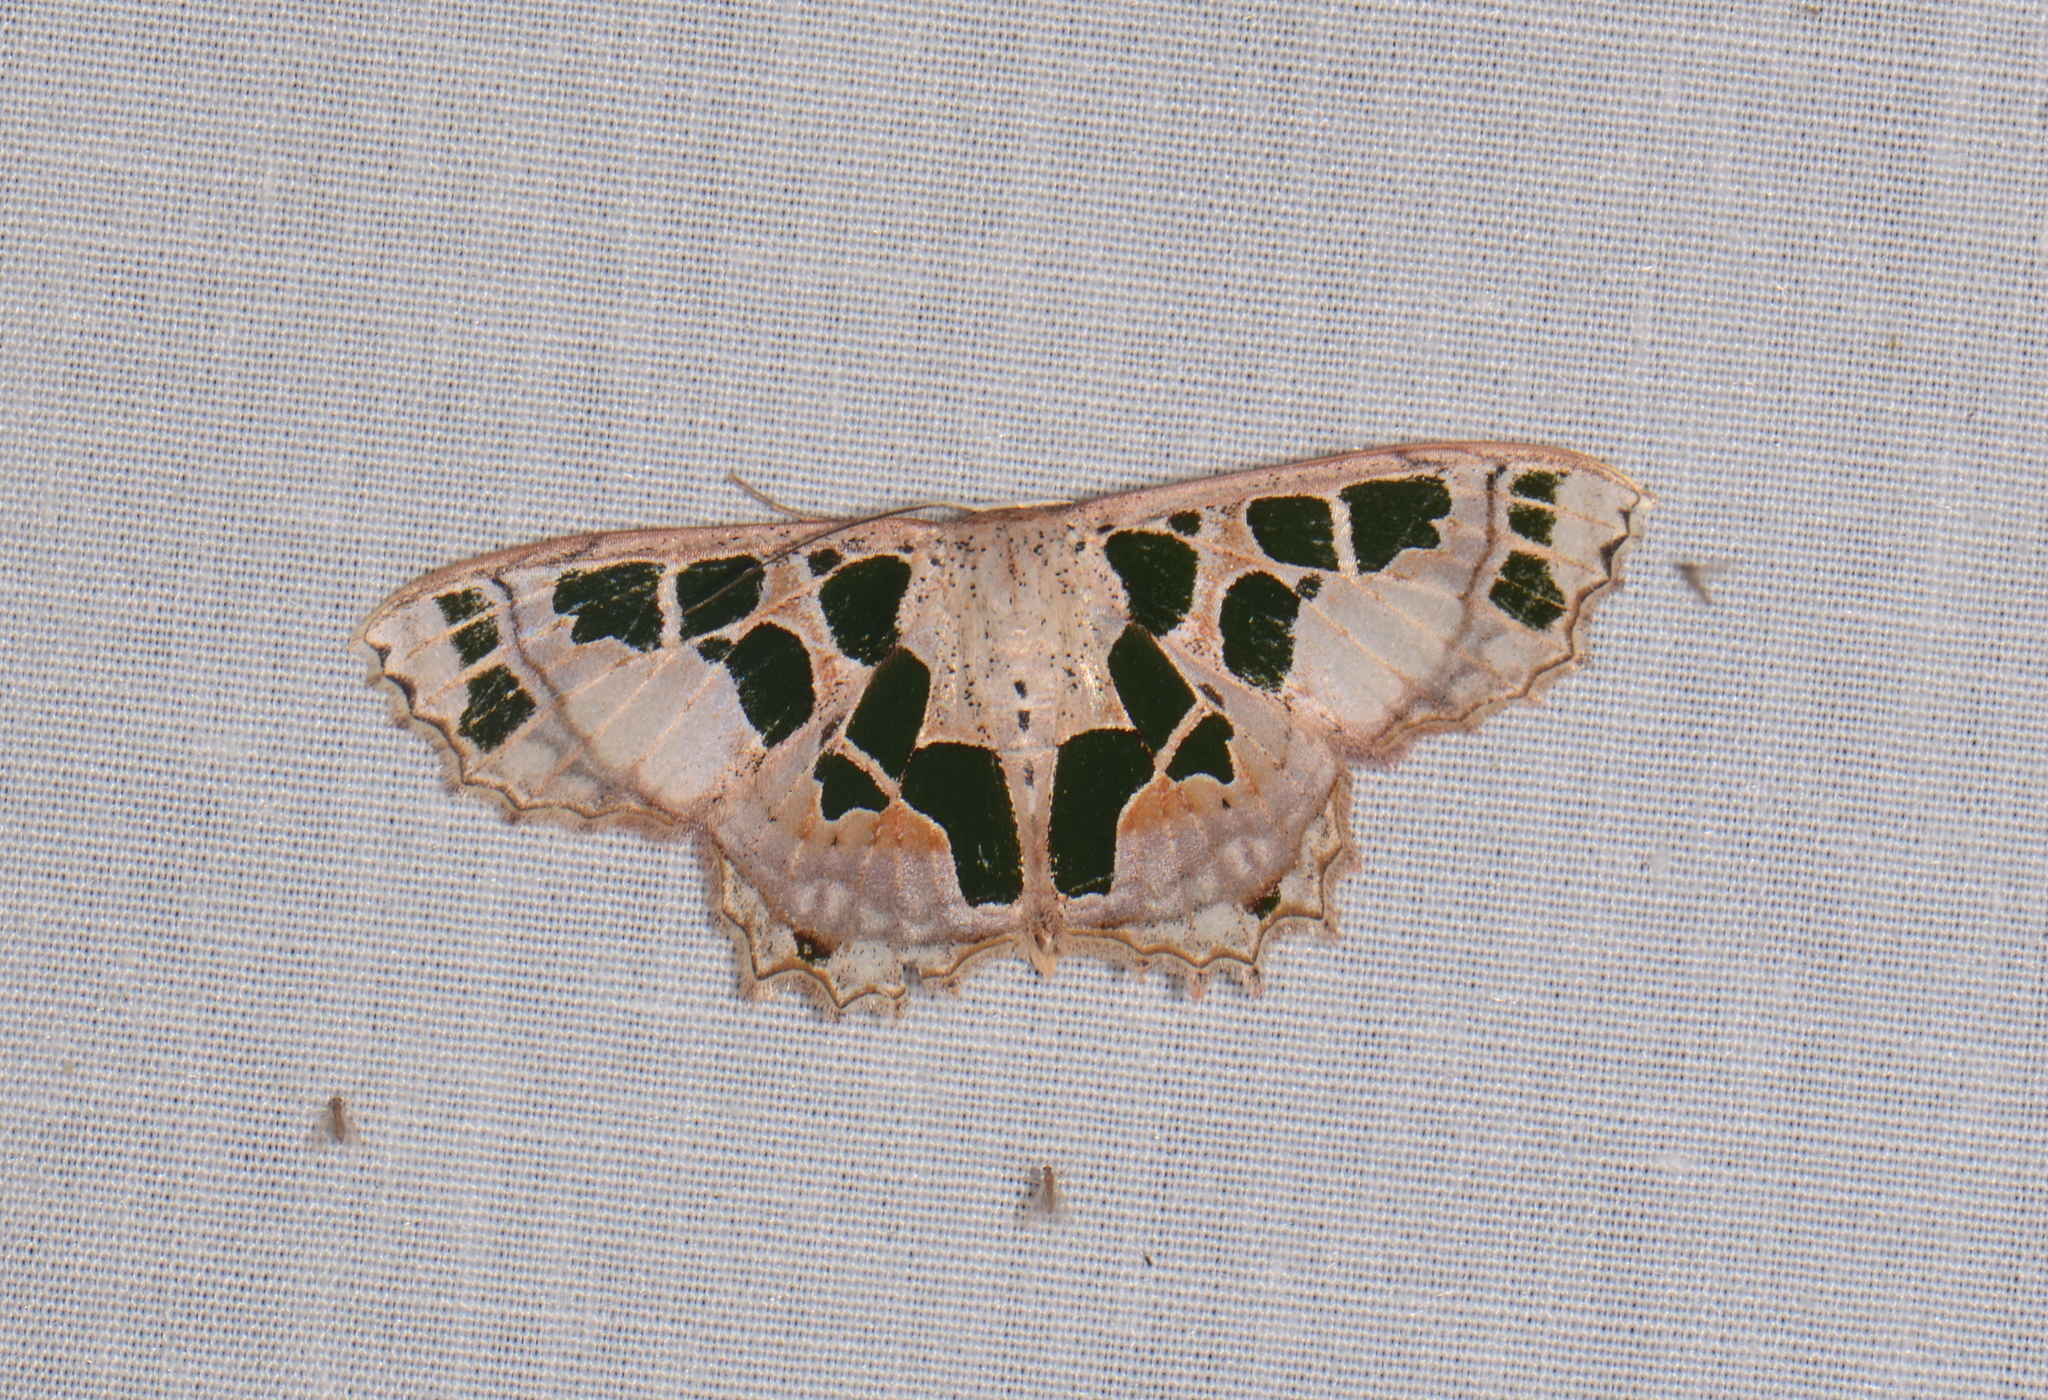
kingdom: Animalia
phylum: Arthropoda
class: Insecta
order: Lepidoptera
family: Geometridae
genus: Scopula
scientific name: Scopula divisaria
